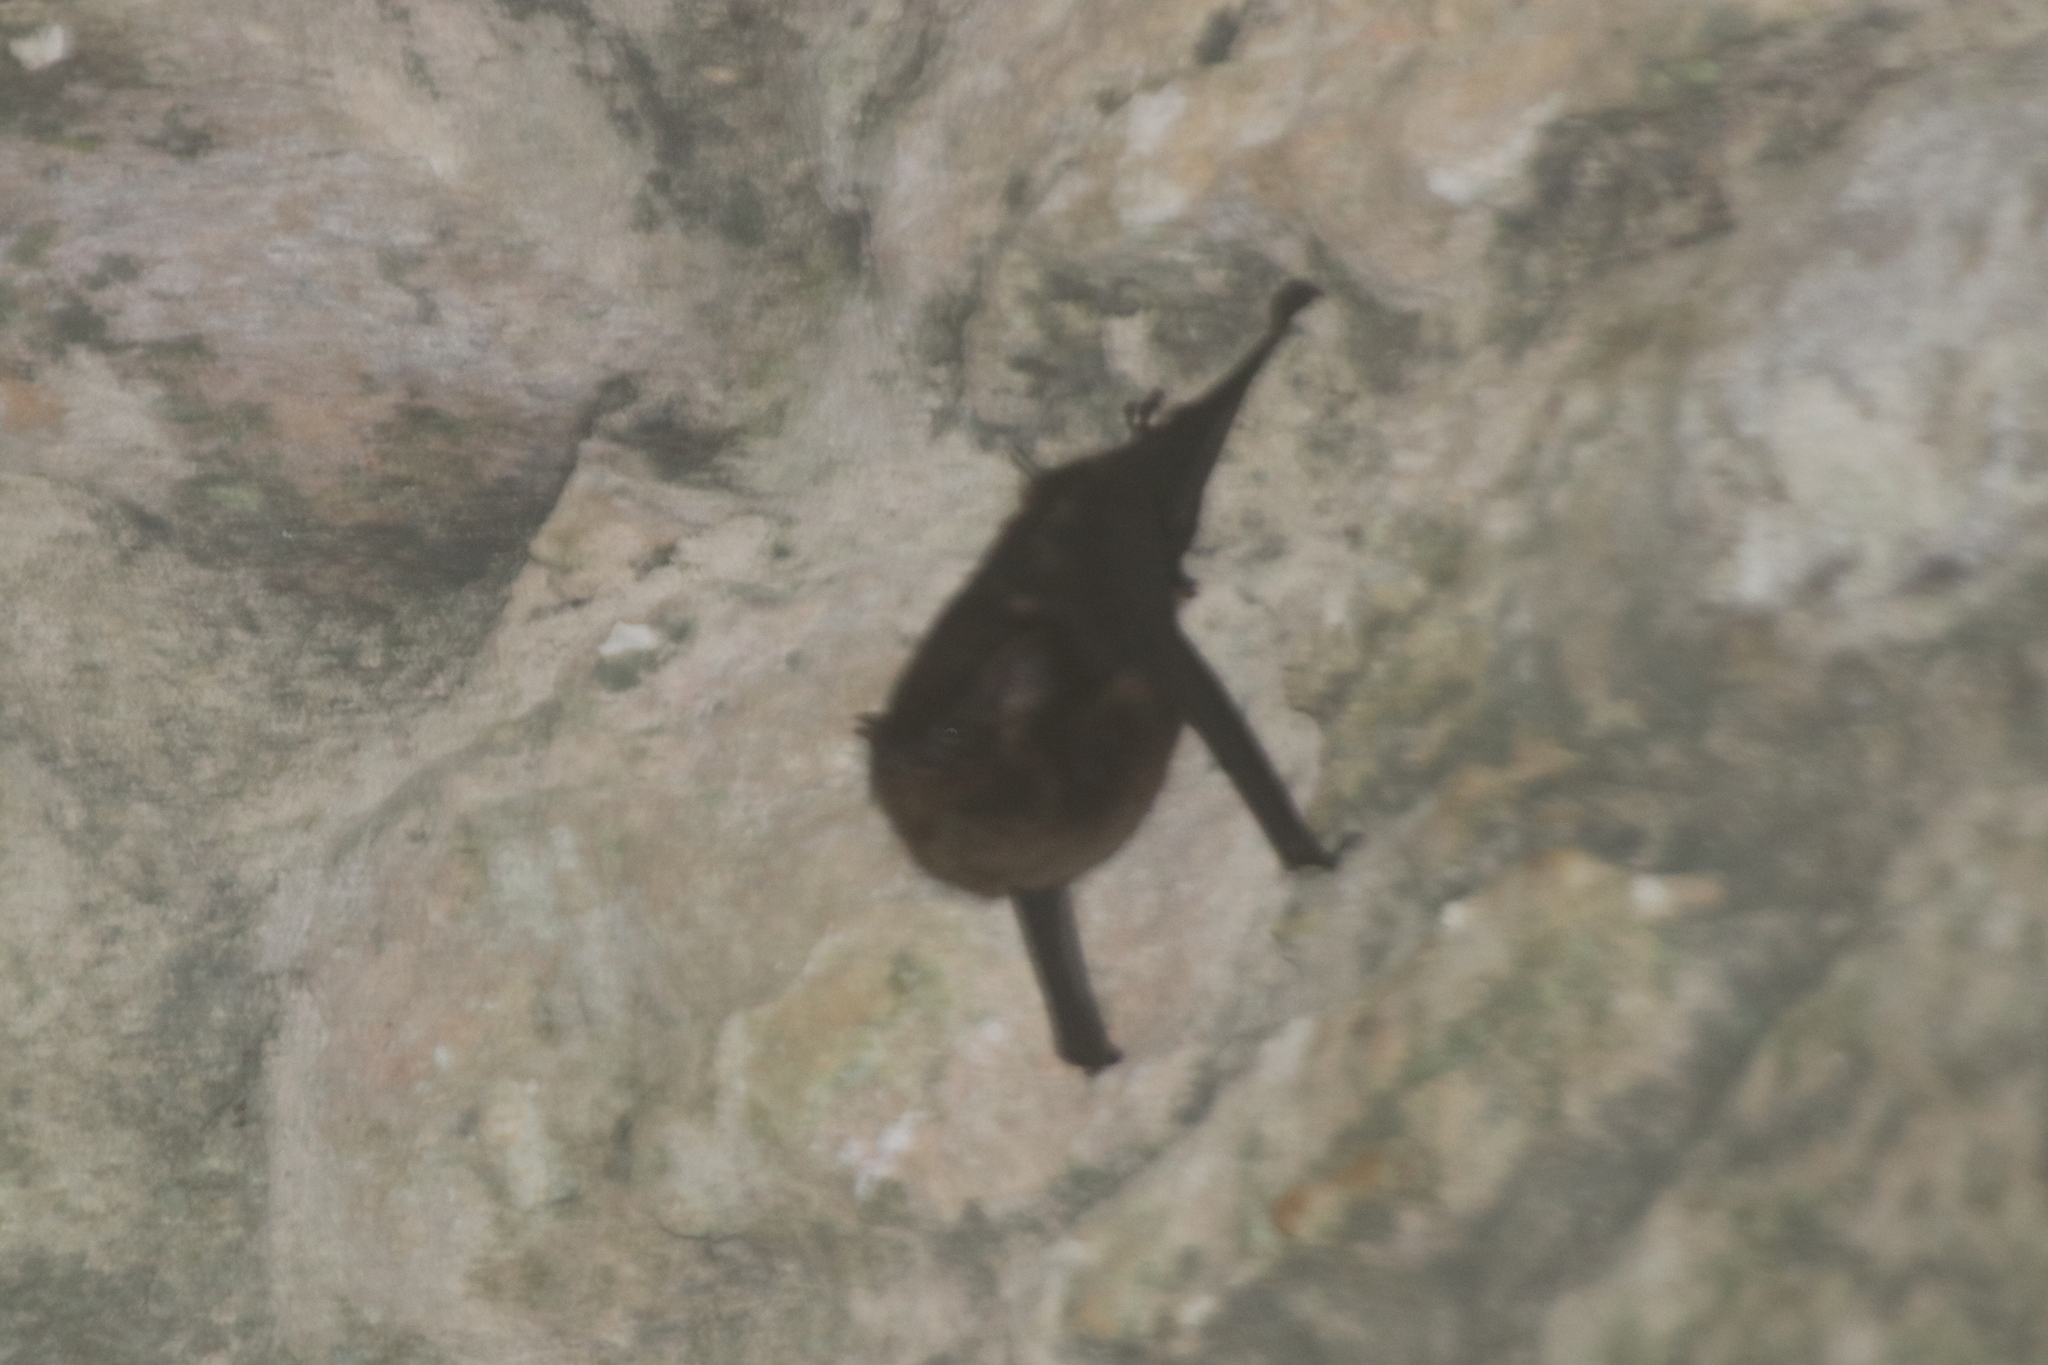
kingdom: Animalia
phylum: Chordata
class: Mammalia
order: Chiroptera
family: Emballonuridae
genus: Saccopteryx
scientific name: Saccopteryx bilineata
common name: Greater sac-winged bat
